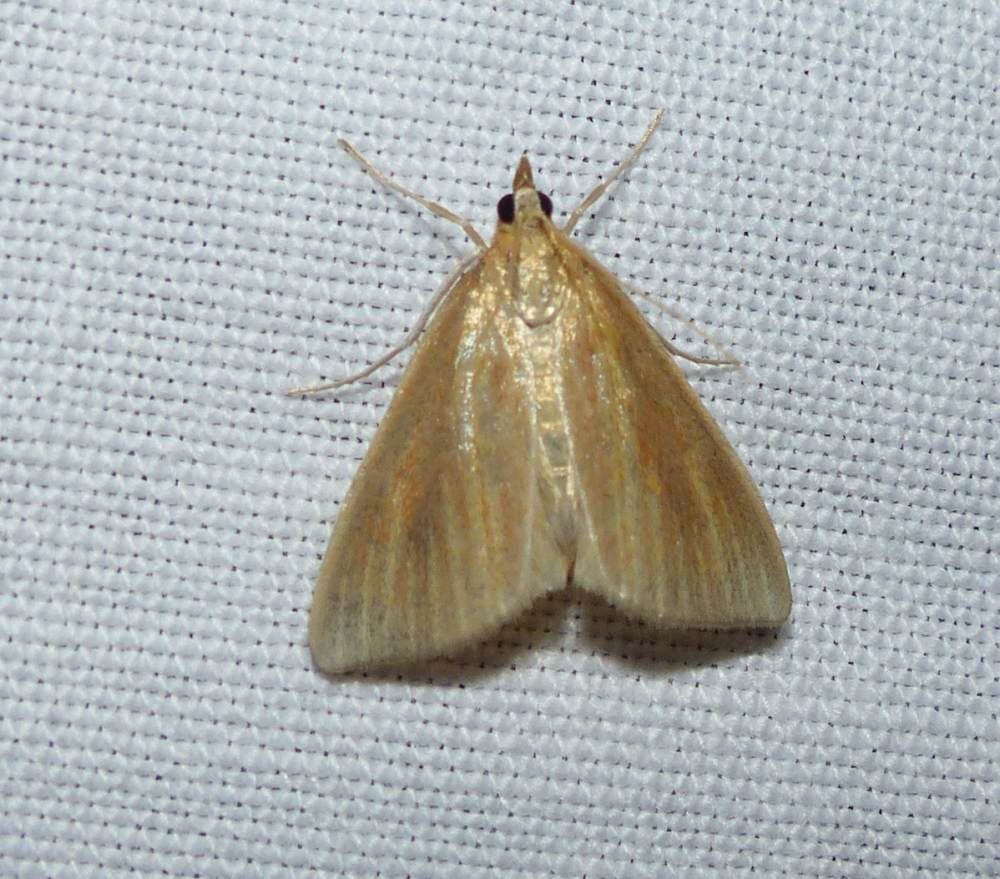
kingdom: Animalia
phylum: Arthropoda
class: Insecta
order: Lepidoptera
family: Crambidae
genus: Nascia
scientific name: Nascia acutellus
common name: Streaked orange moth
